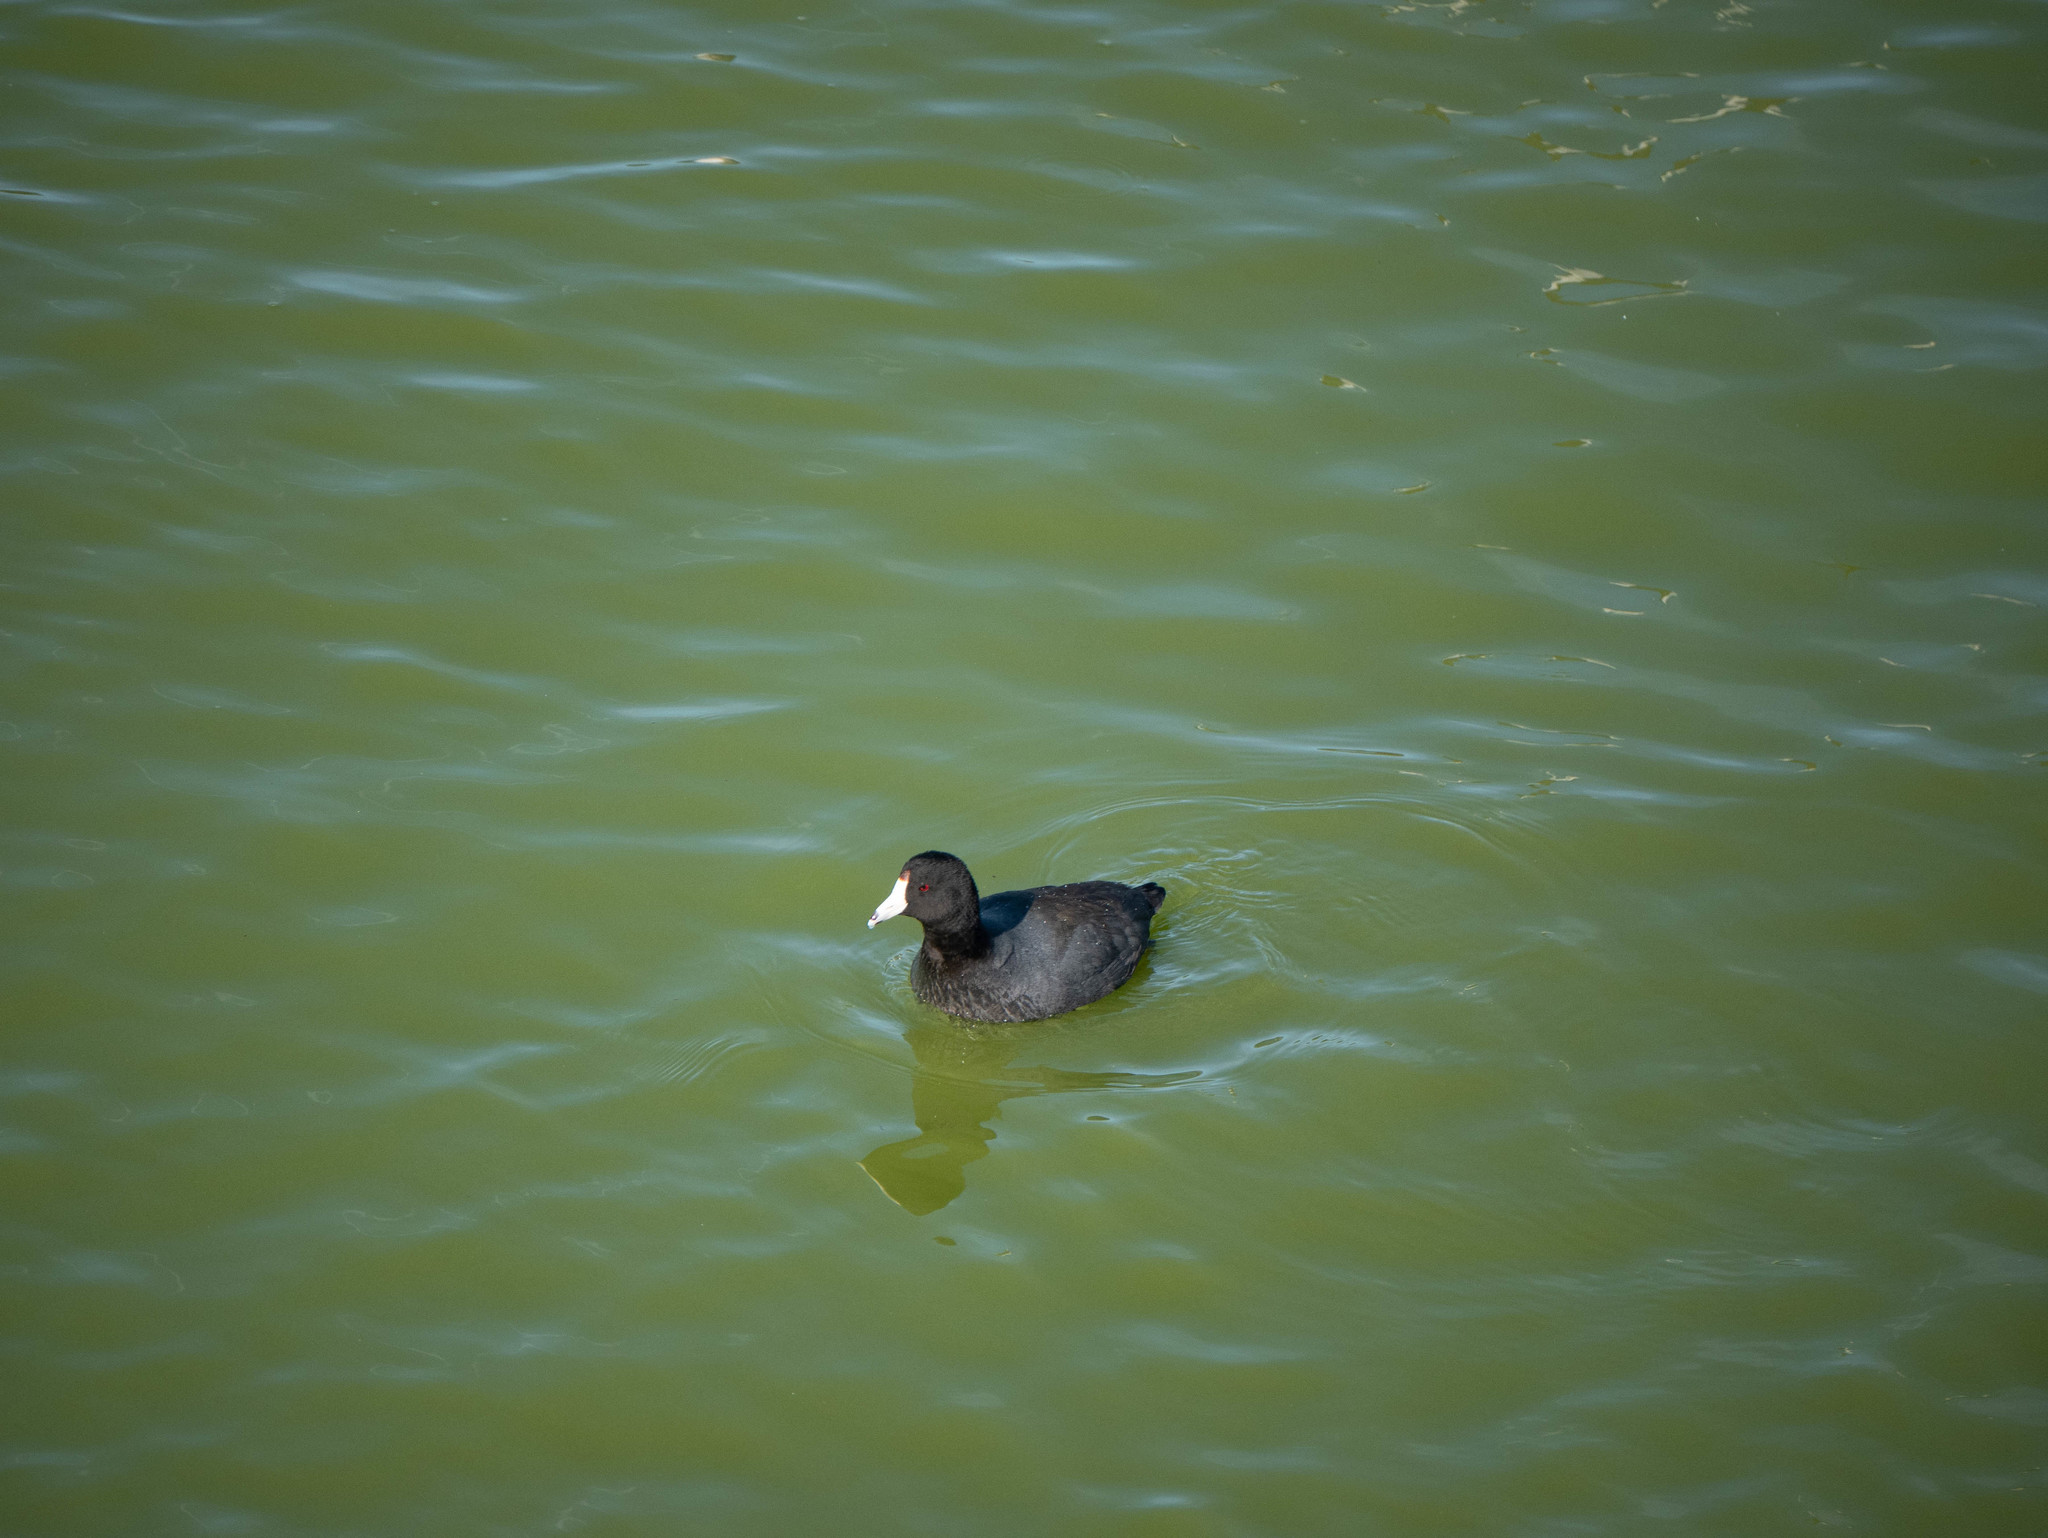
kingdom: Animalia
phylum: Chordata
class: Aves
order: Gruiformes
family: Rallidae
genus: Fulica
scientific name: Fulica americana
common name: American coot
